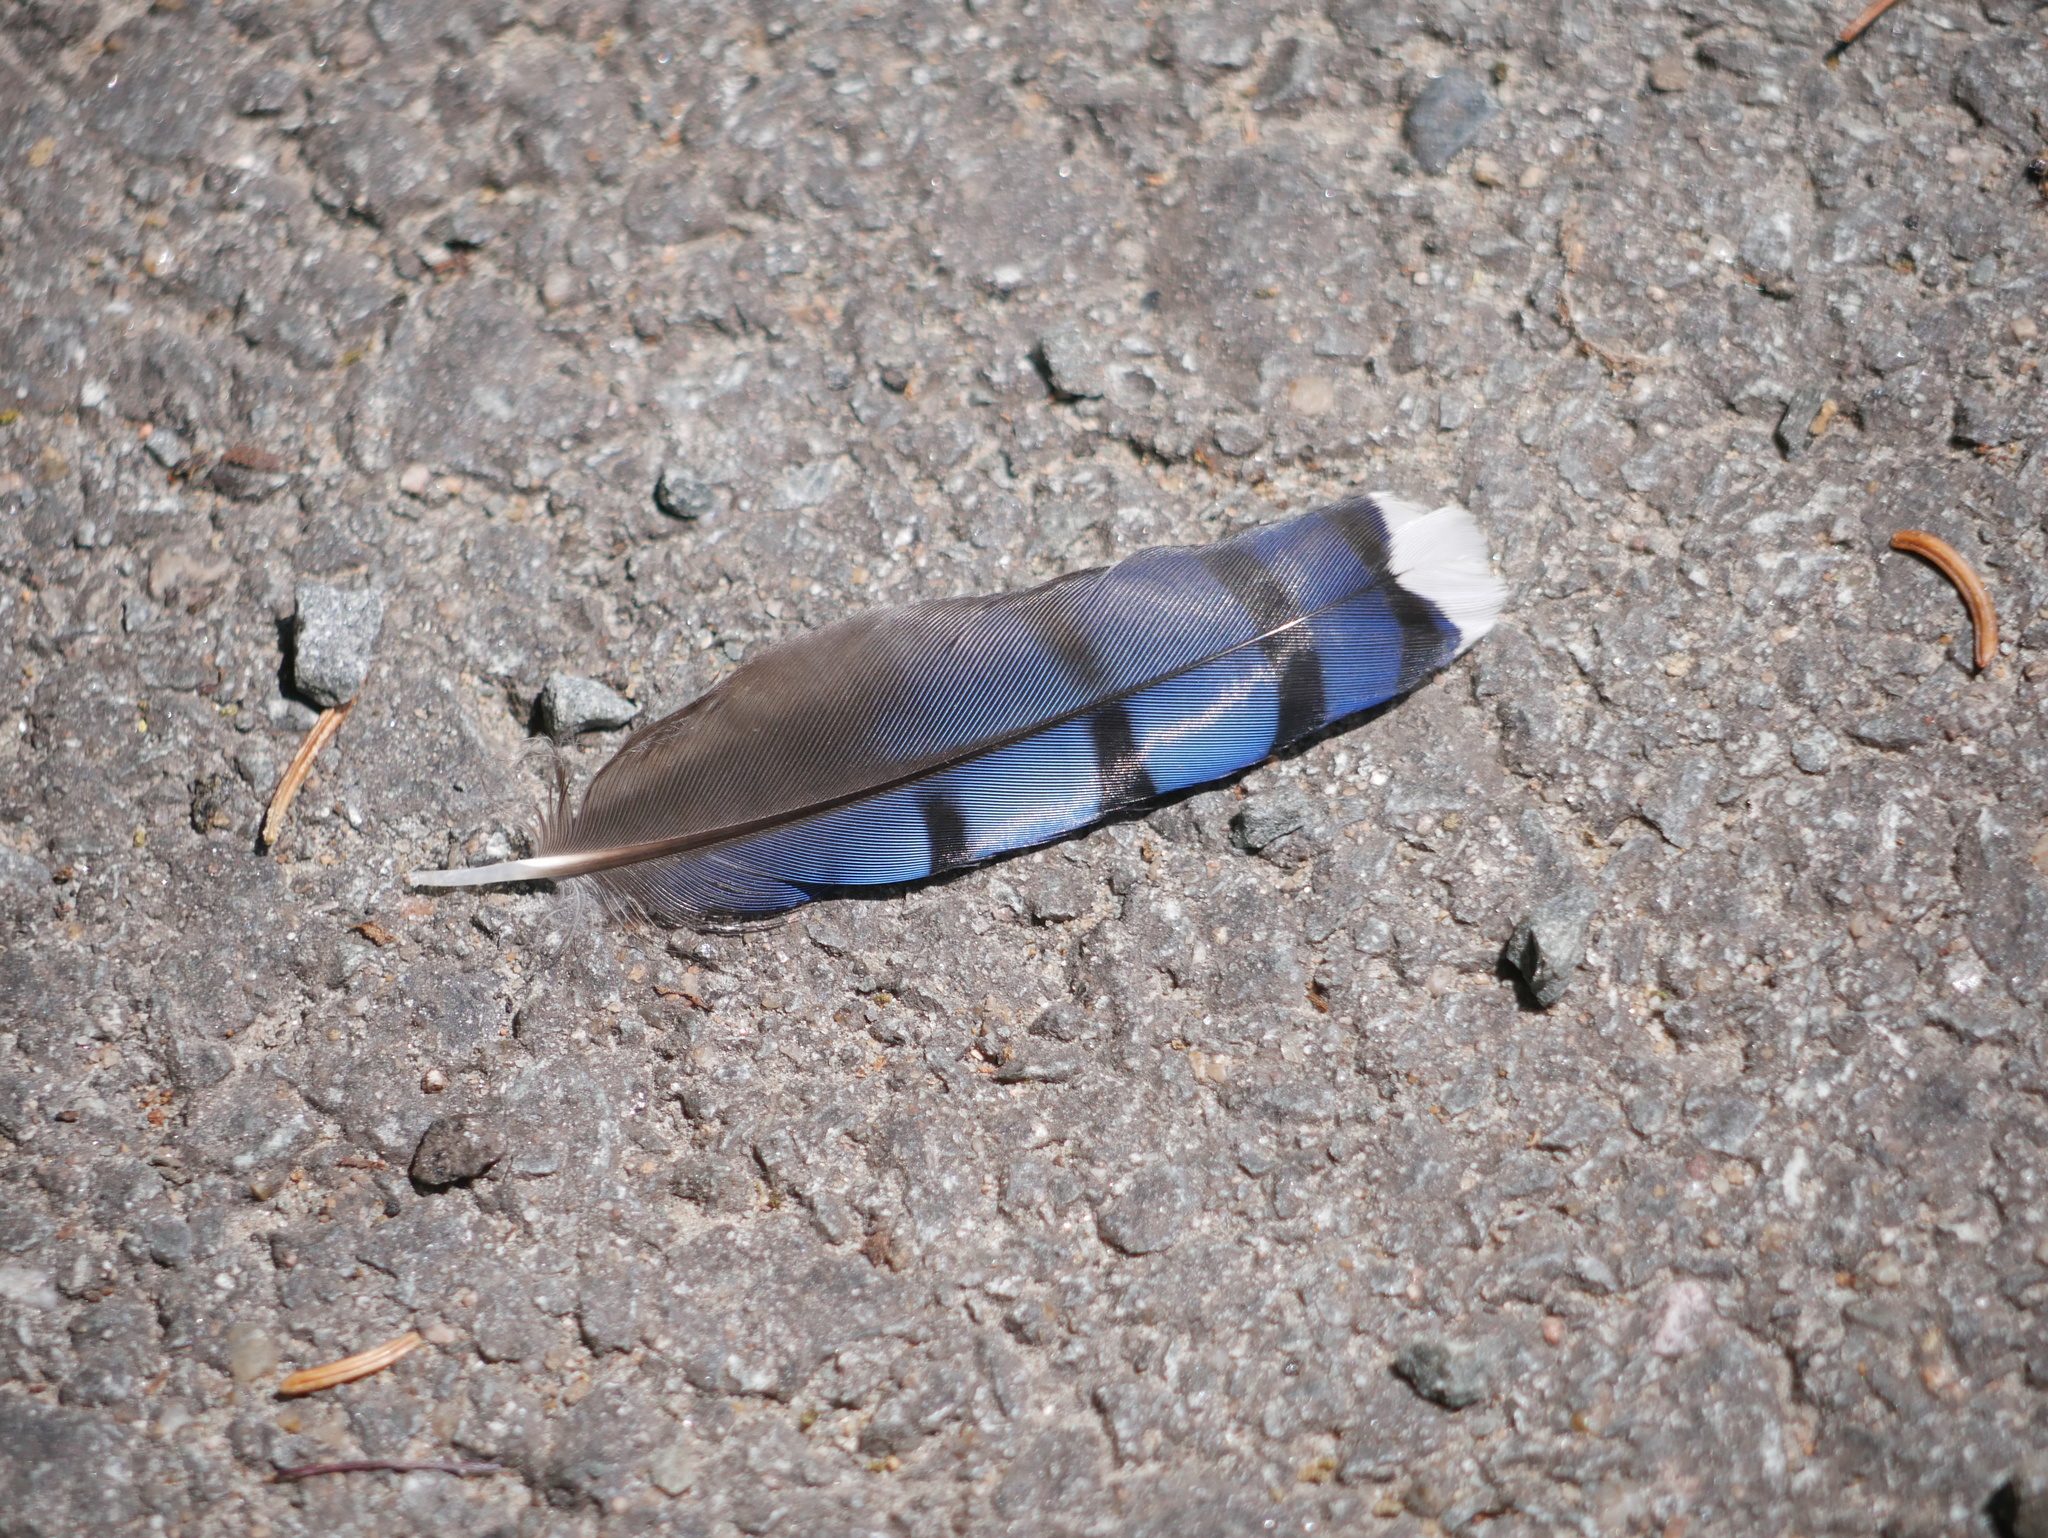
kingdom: Animalia
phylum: Chordata
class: Aves
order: Passeriformes
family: Corvidae
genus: Cyanocitta
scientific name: Cyanocitta cristata
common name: Blue jay
